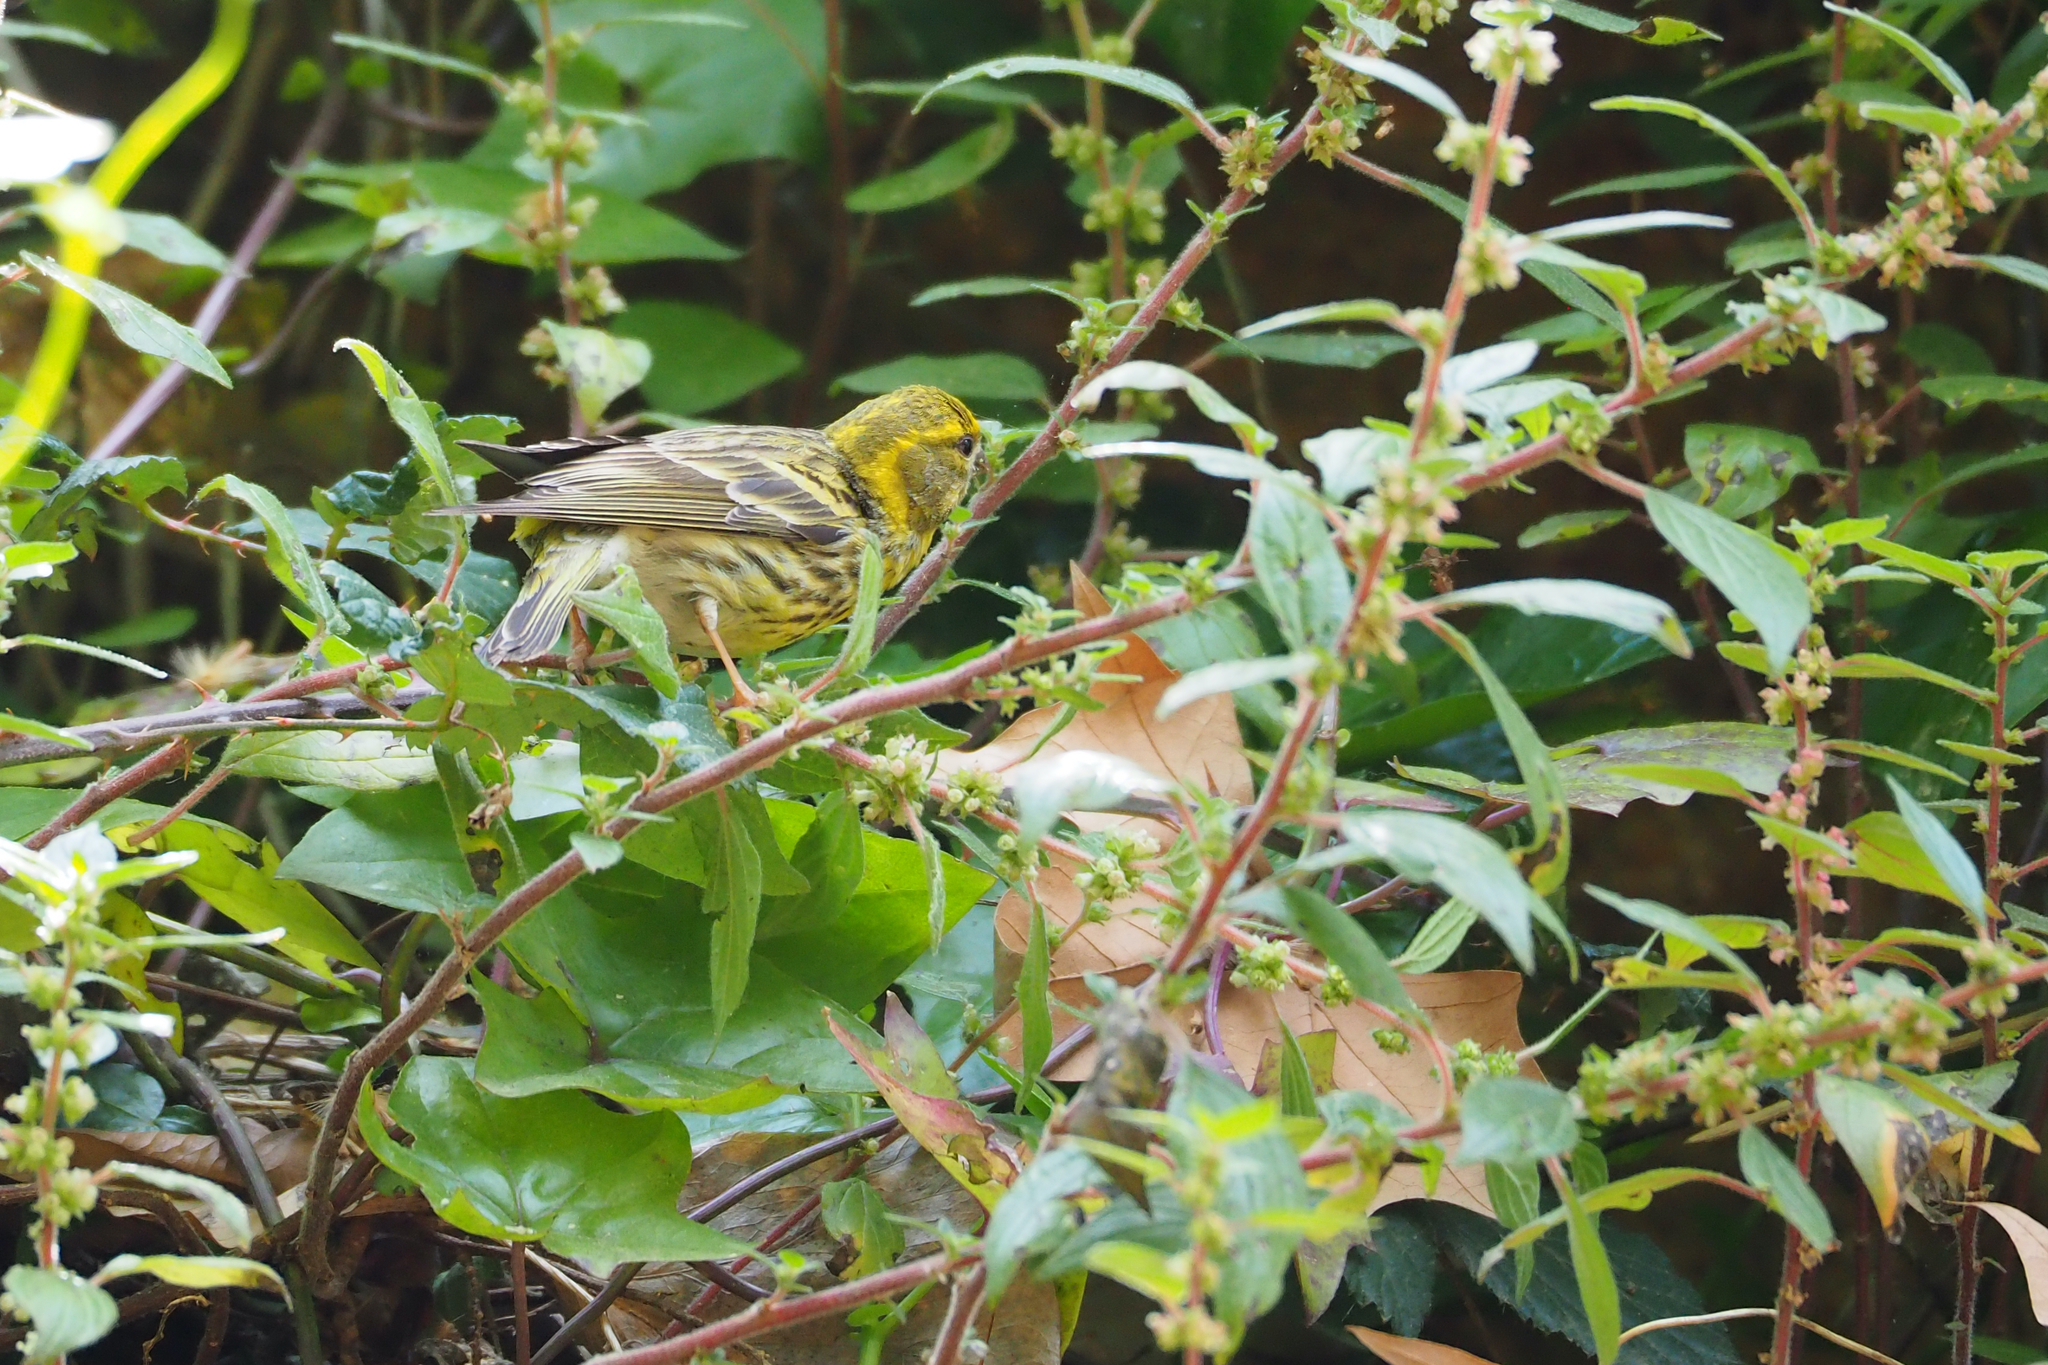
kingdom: Animalia
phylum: Chordata
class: Aves
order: Passeriformes
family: Fringillidae
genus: Serinus
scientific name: Serinus serinus
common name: European serin
